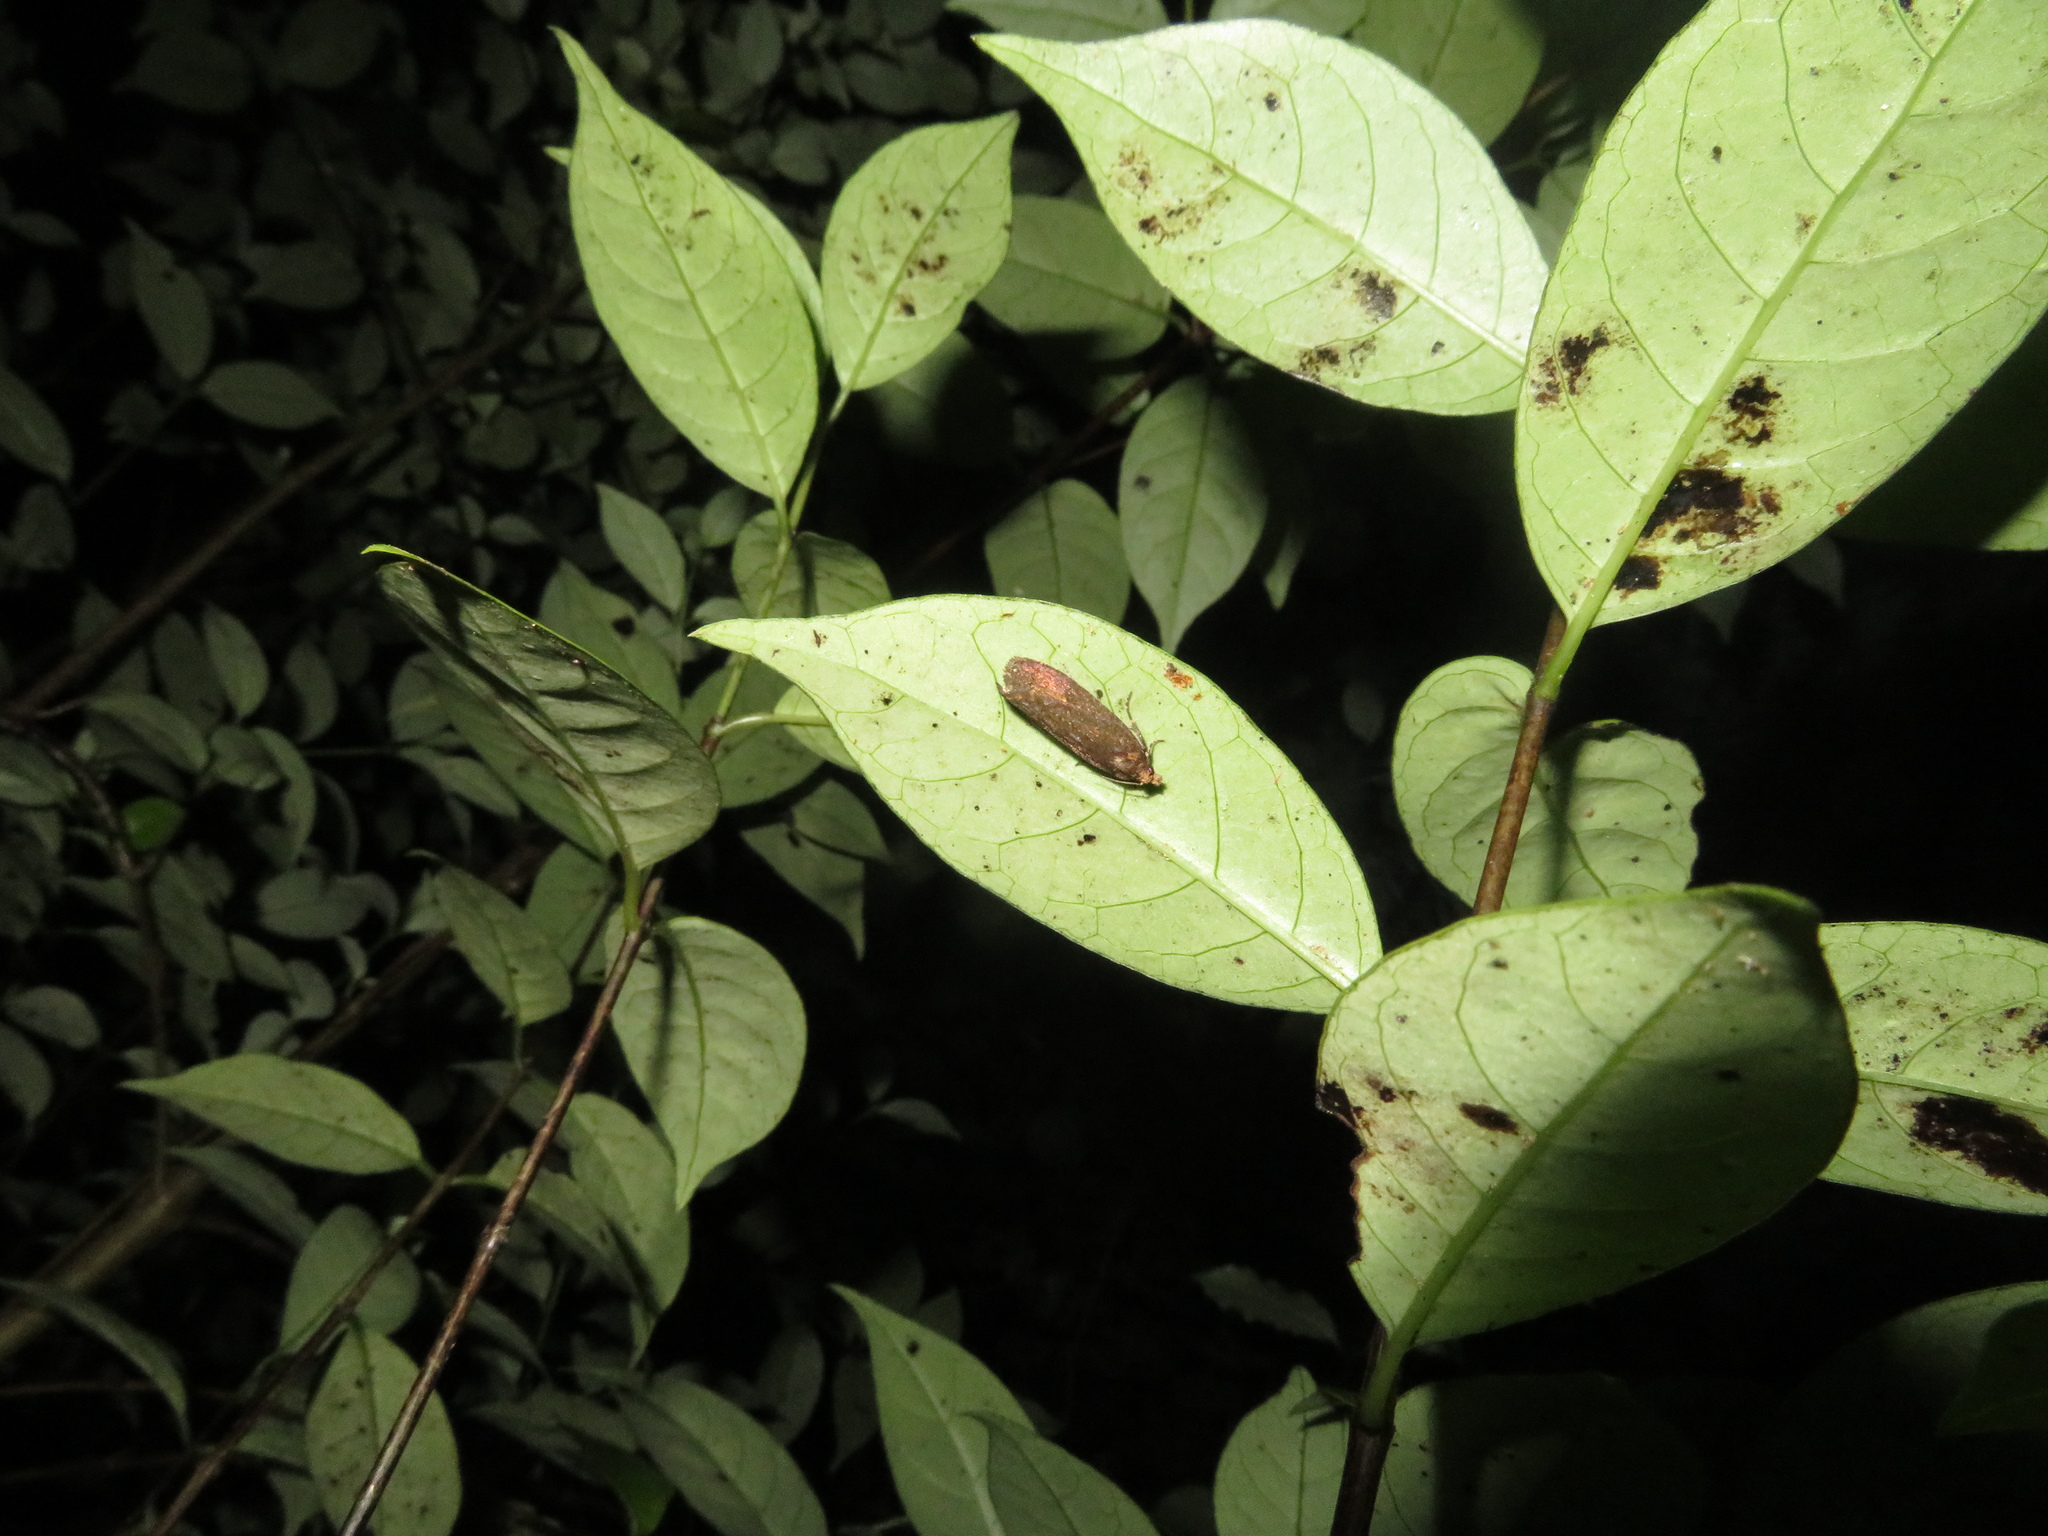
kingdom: Animalia
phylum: Arthropoda
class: Insecta
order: Lepidoptera
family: Tortricidae
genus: Cryptaspasma
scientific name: Cryptaspasma querula
